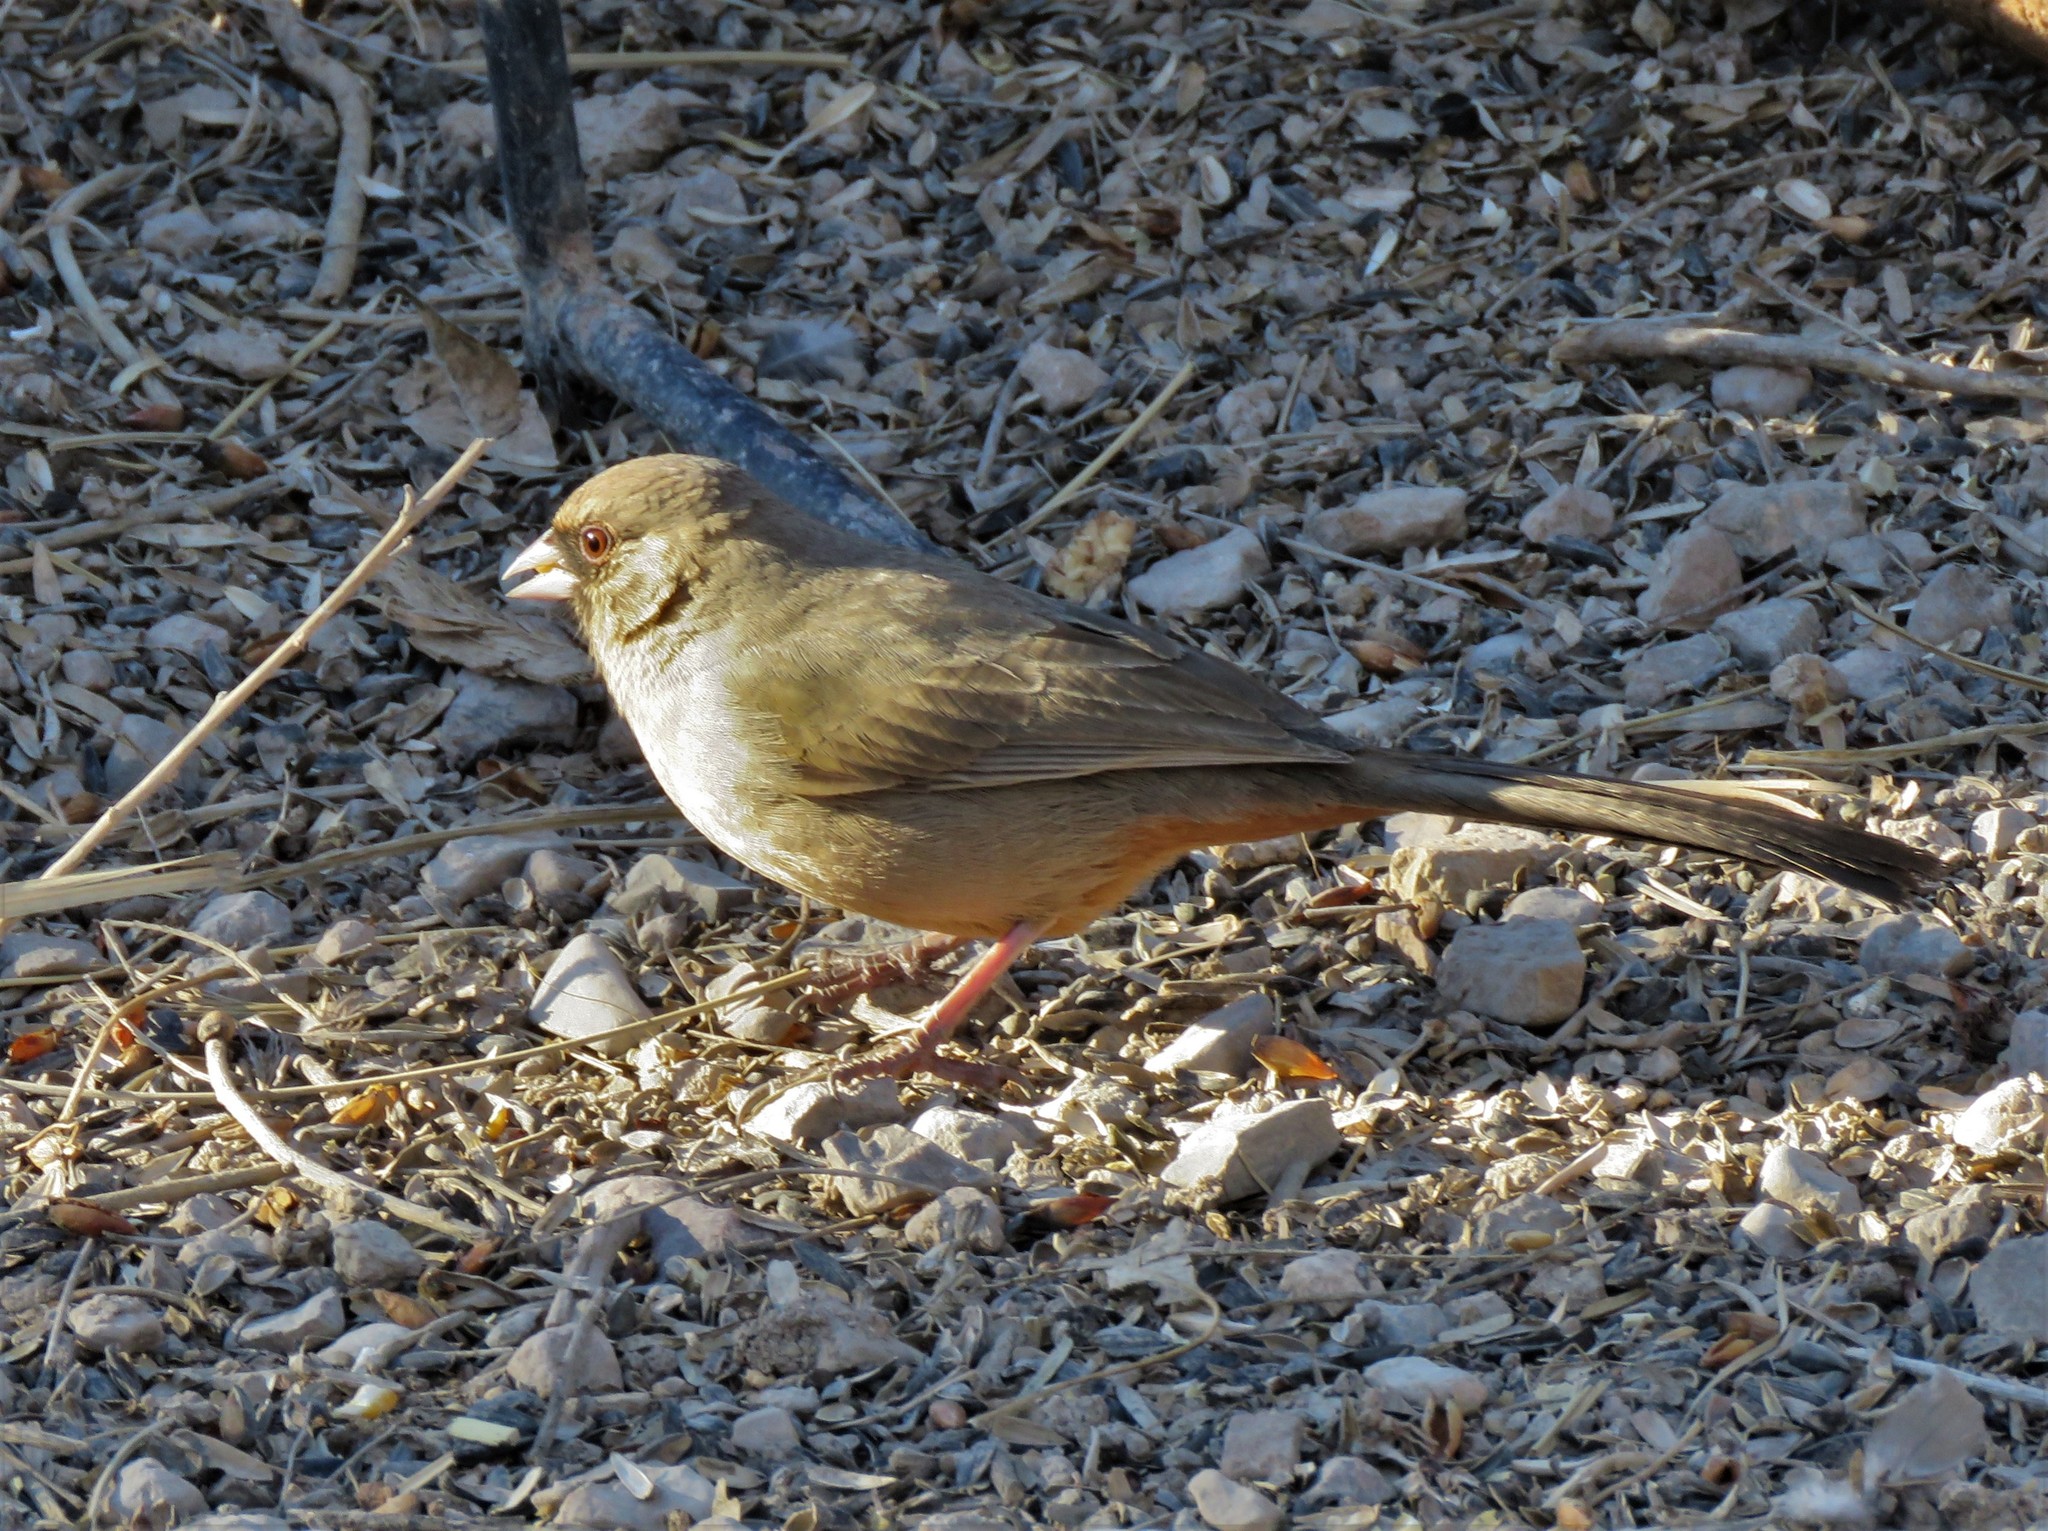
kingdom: Animalia
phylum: Chordata
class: Aves
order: Passeriformes
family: Passerellidae
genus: Melozone
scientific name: Melozone aberti
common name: Abert's towhee
